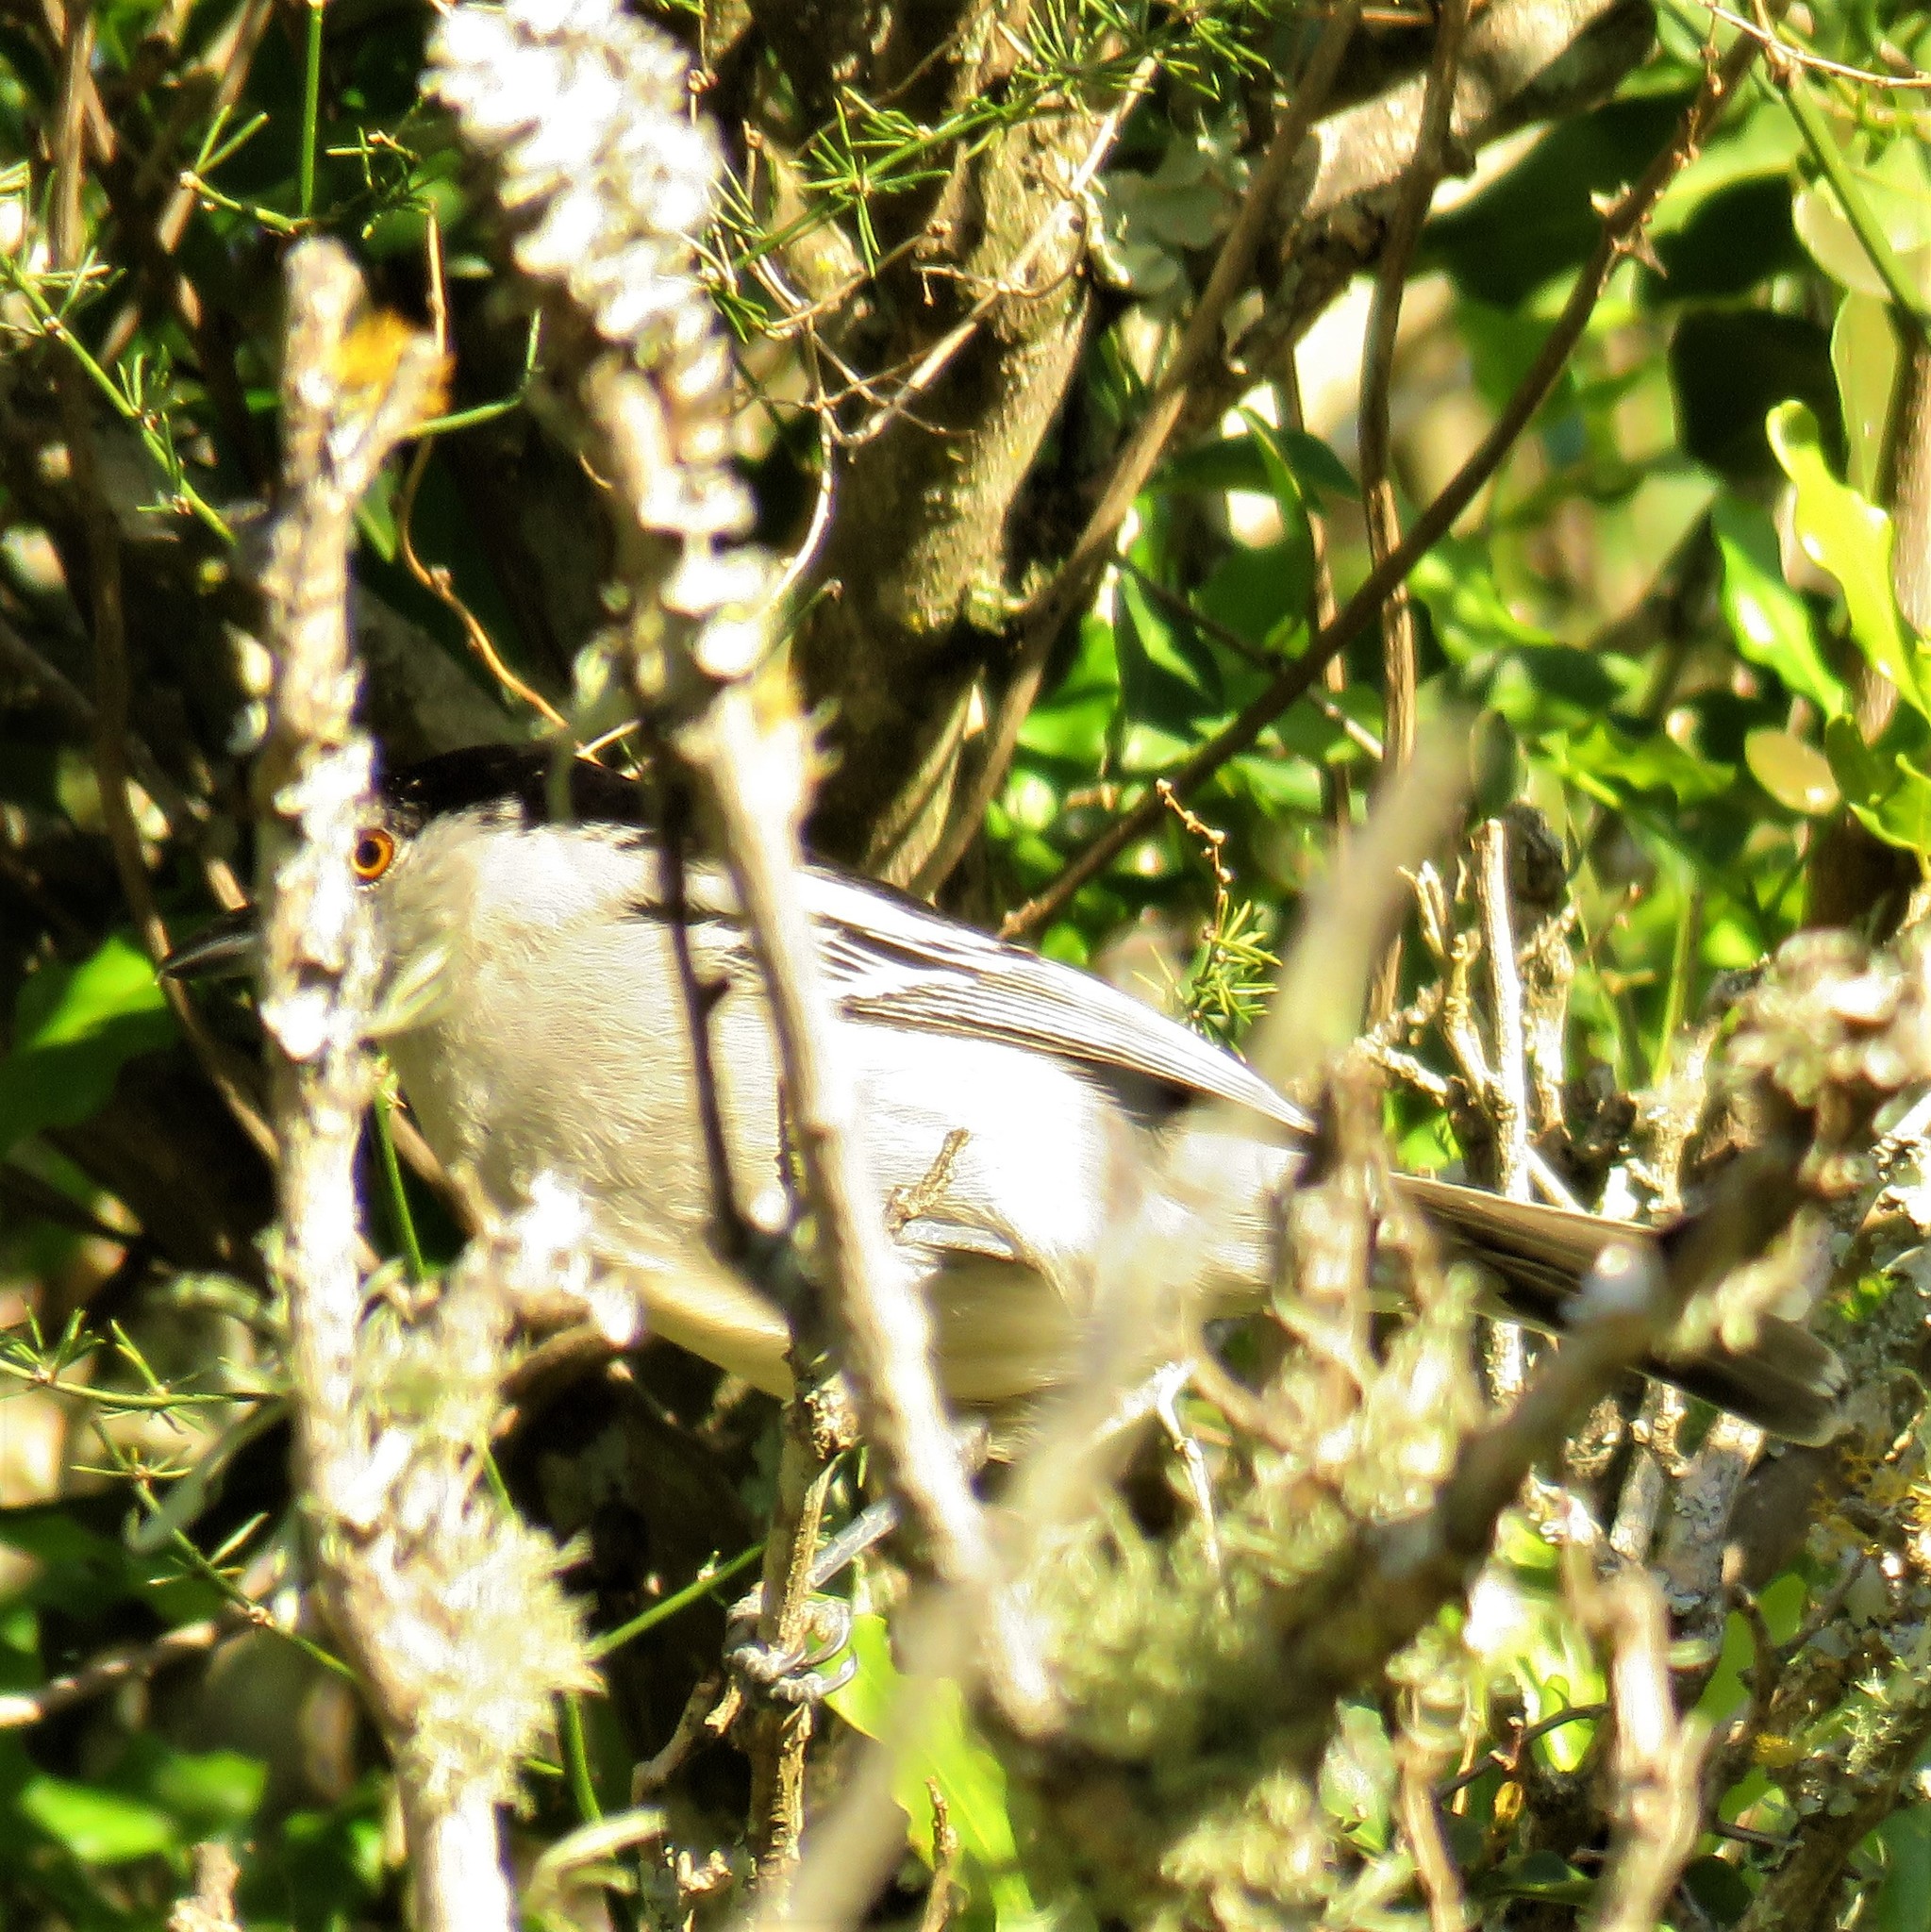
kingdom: Animalia
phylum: Chordata
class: Aves
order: Passeriformes
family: Malaconotidae
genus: Dryoscopus
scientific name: Dryoscopus cubla
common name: Black-backed puffback
